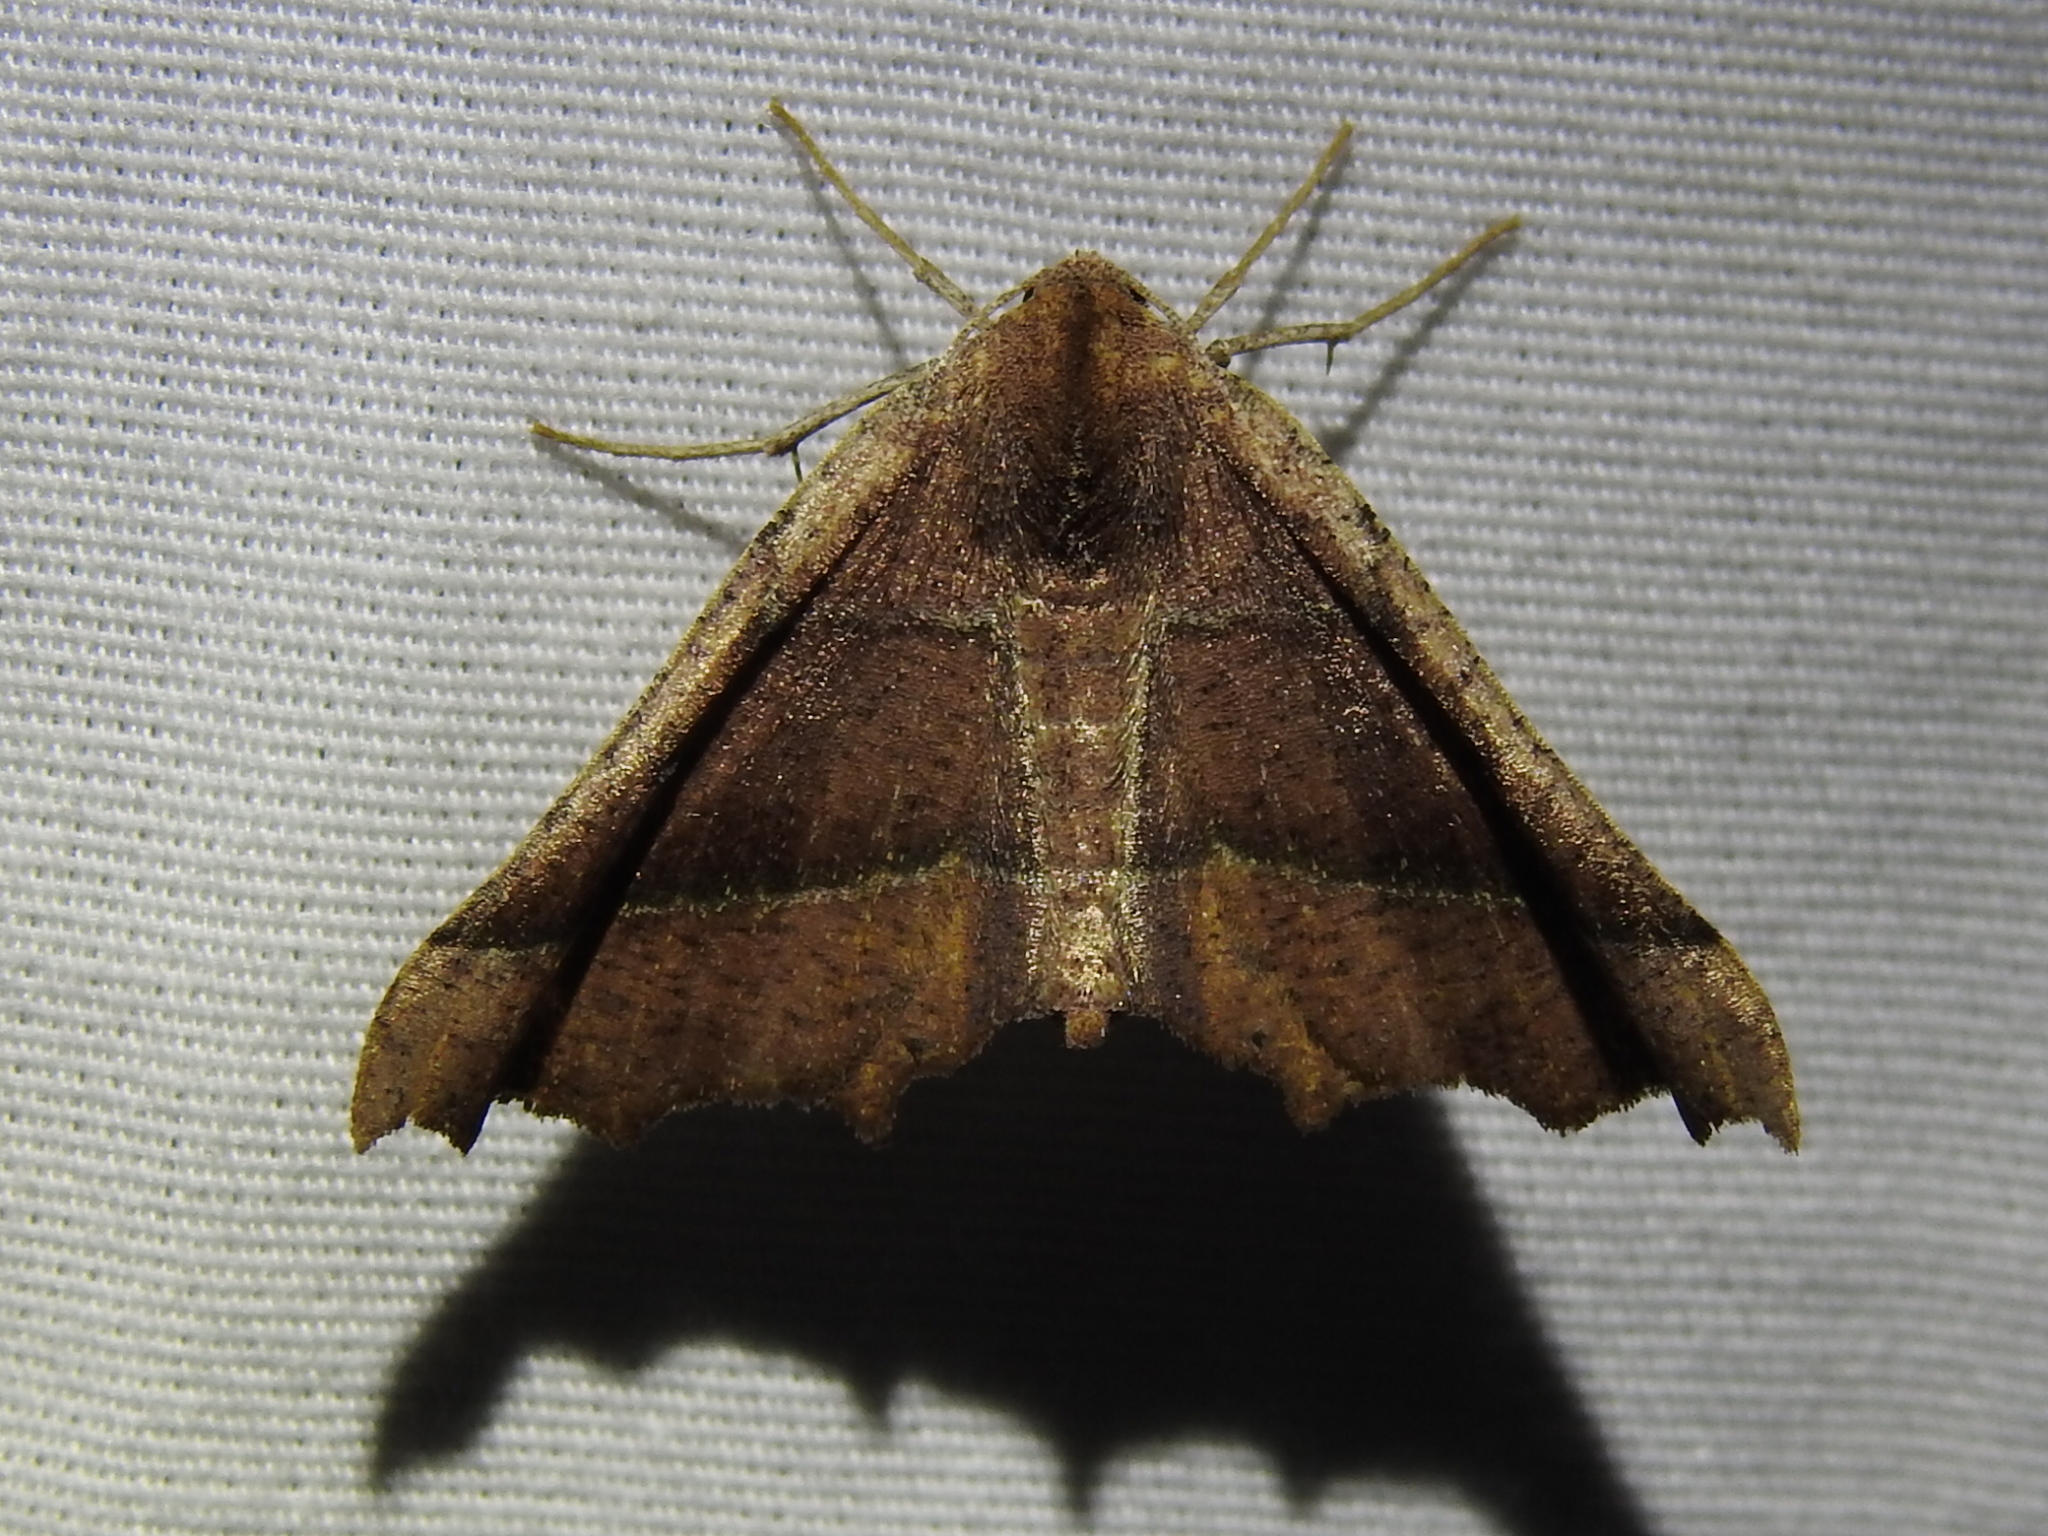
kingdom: Animalia
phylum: Arthropoda
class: Insecta
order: Lepidoptera
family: Geometridae
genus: Pero
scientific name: Pero meskaria
